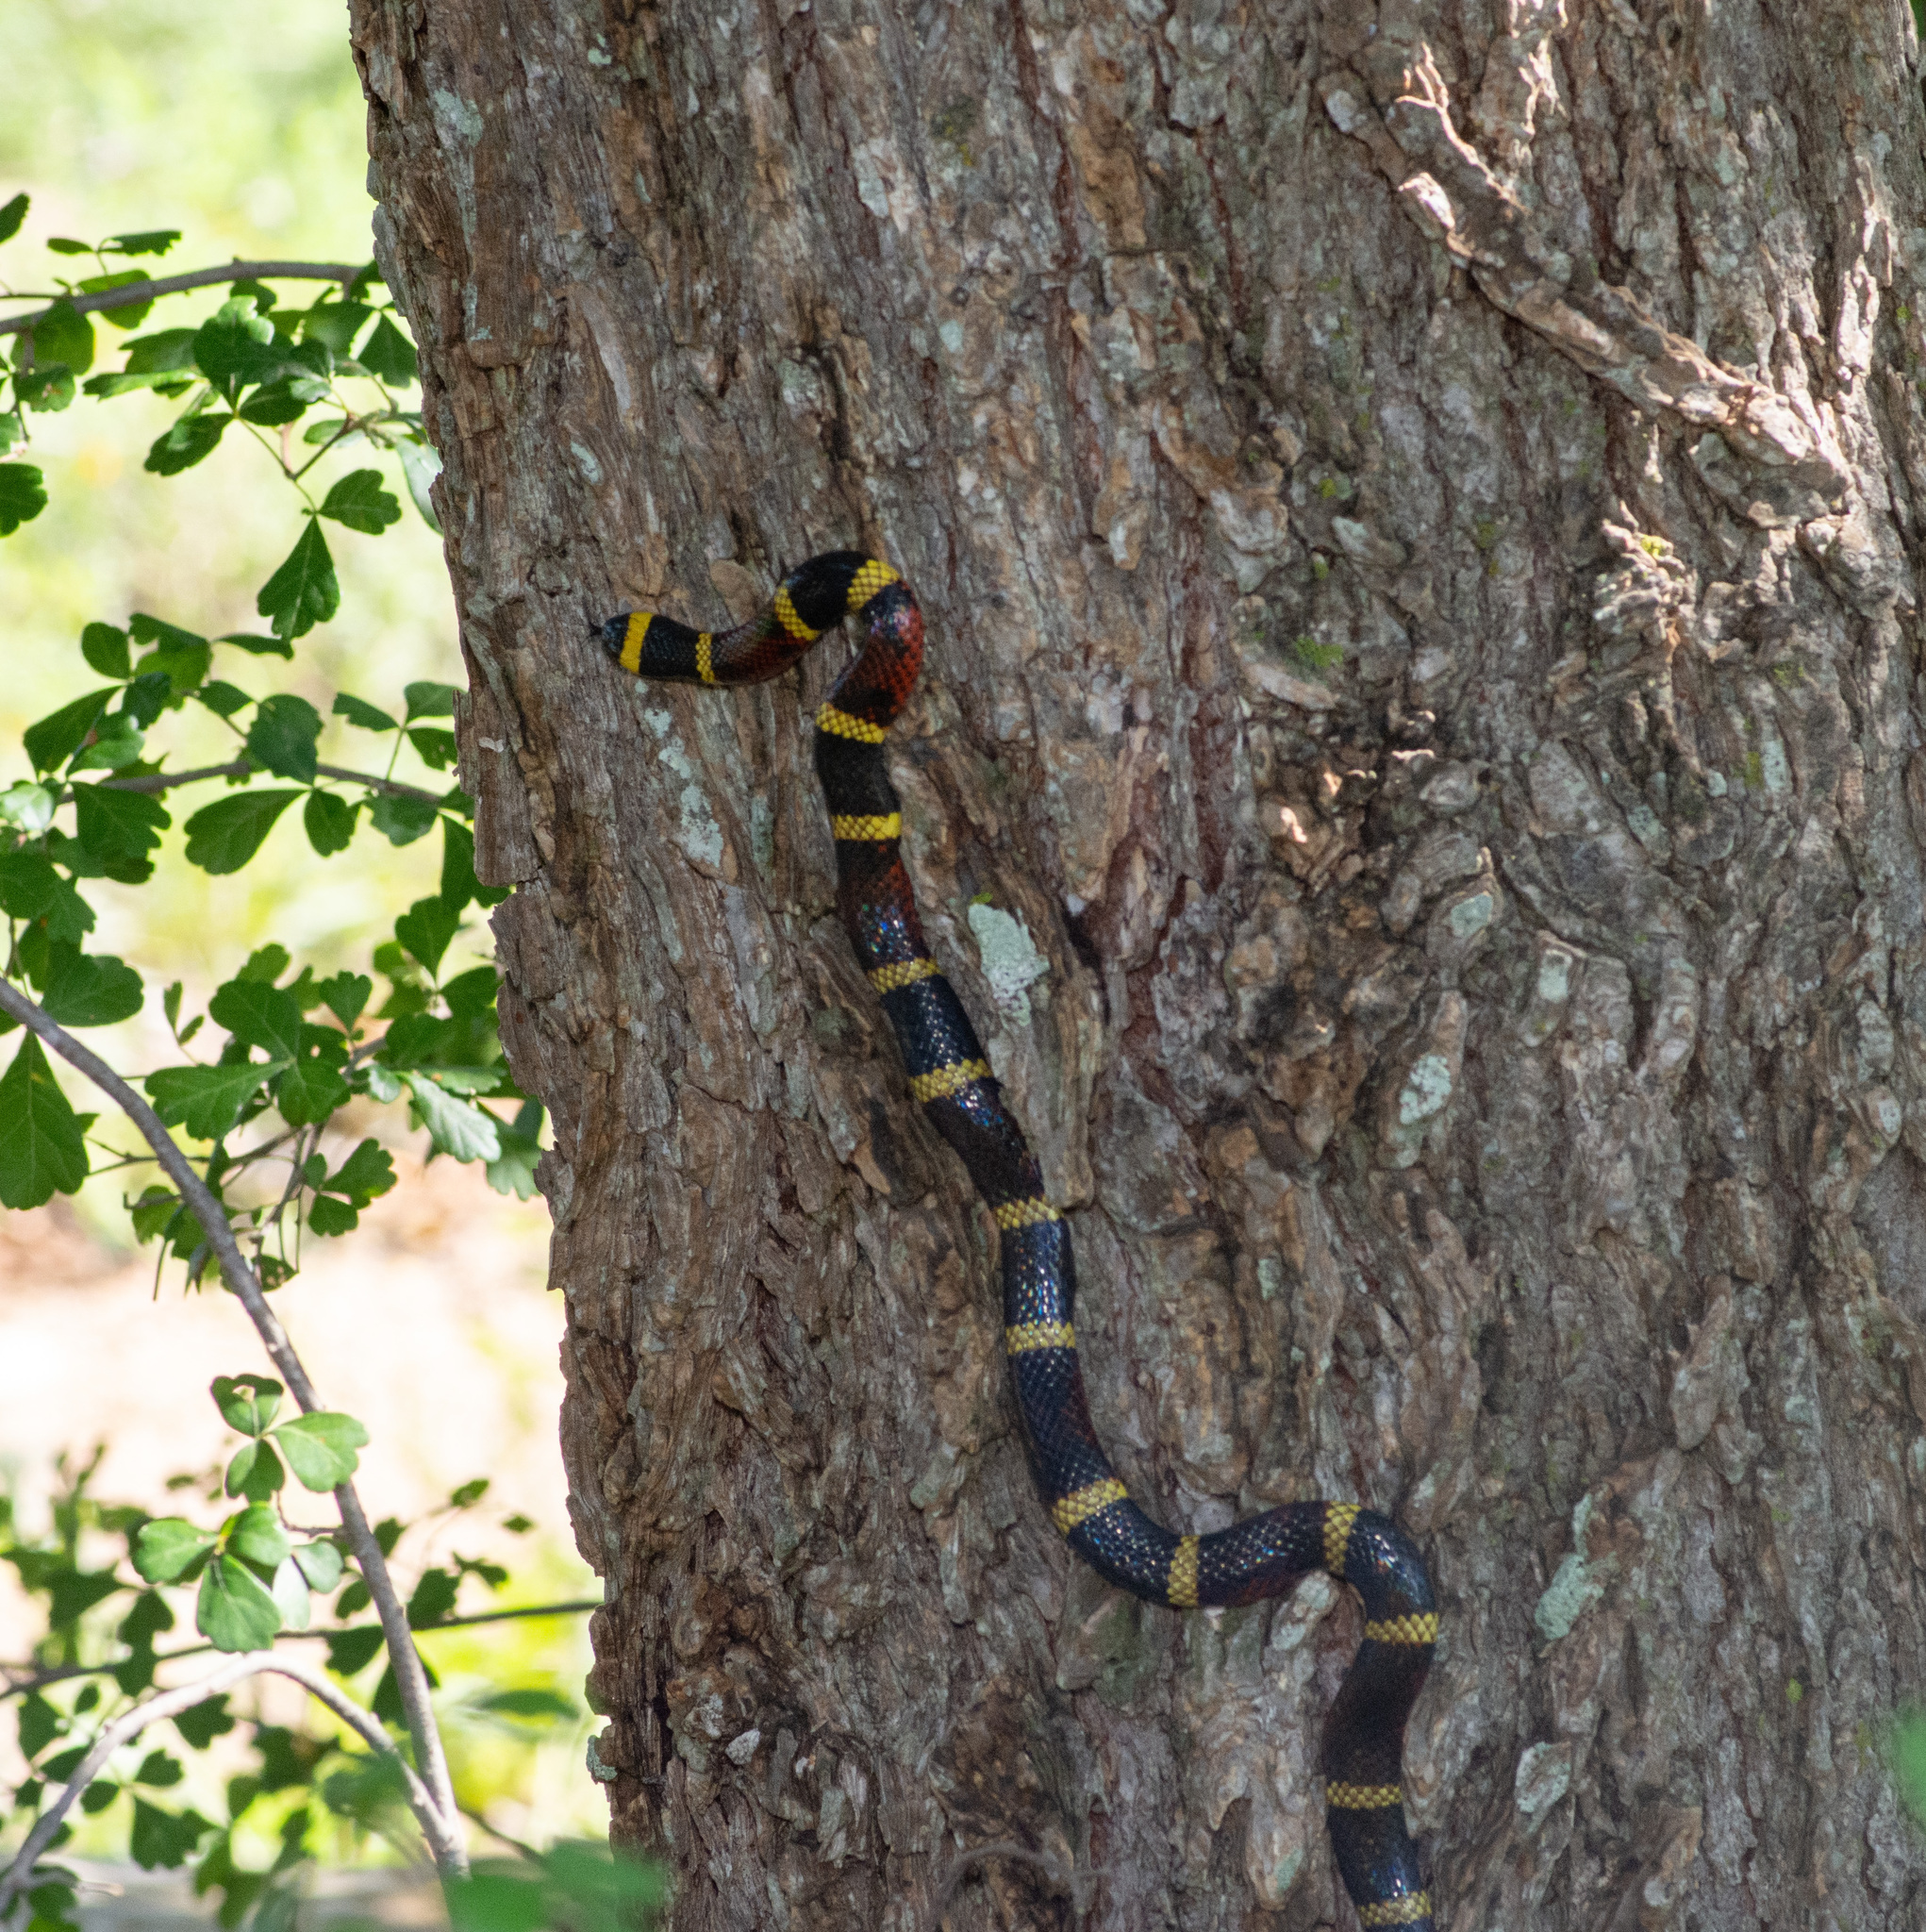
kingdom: Animalia
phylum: Chordata
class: Squamata
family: Elapidae
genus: Micrurus
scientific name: Micrurus tener
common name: Texas coral snake
